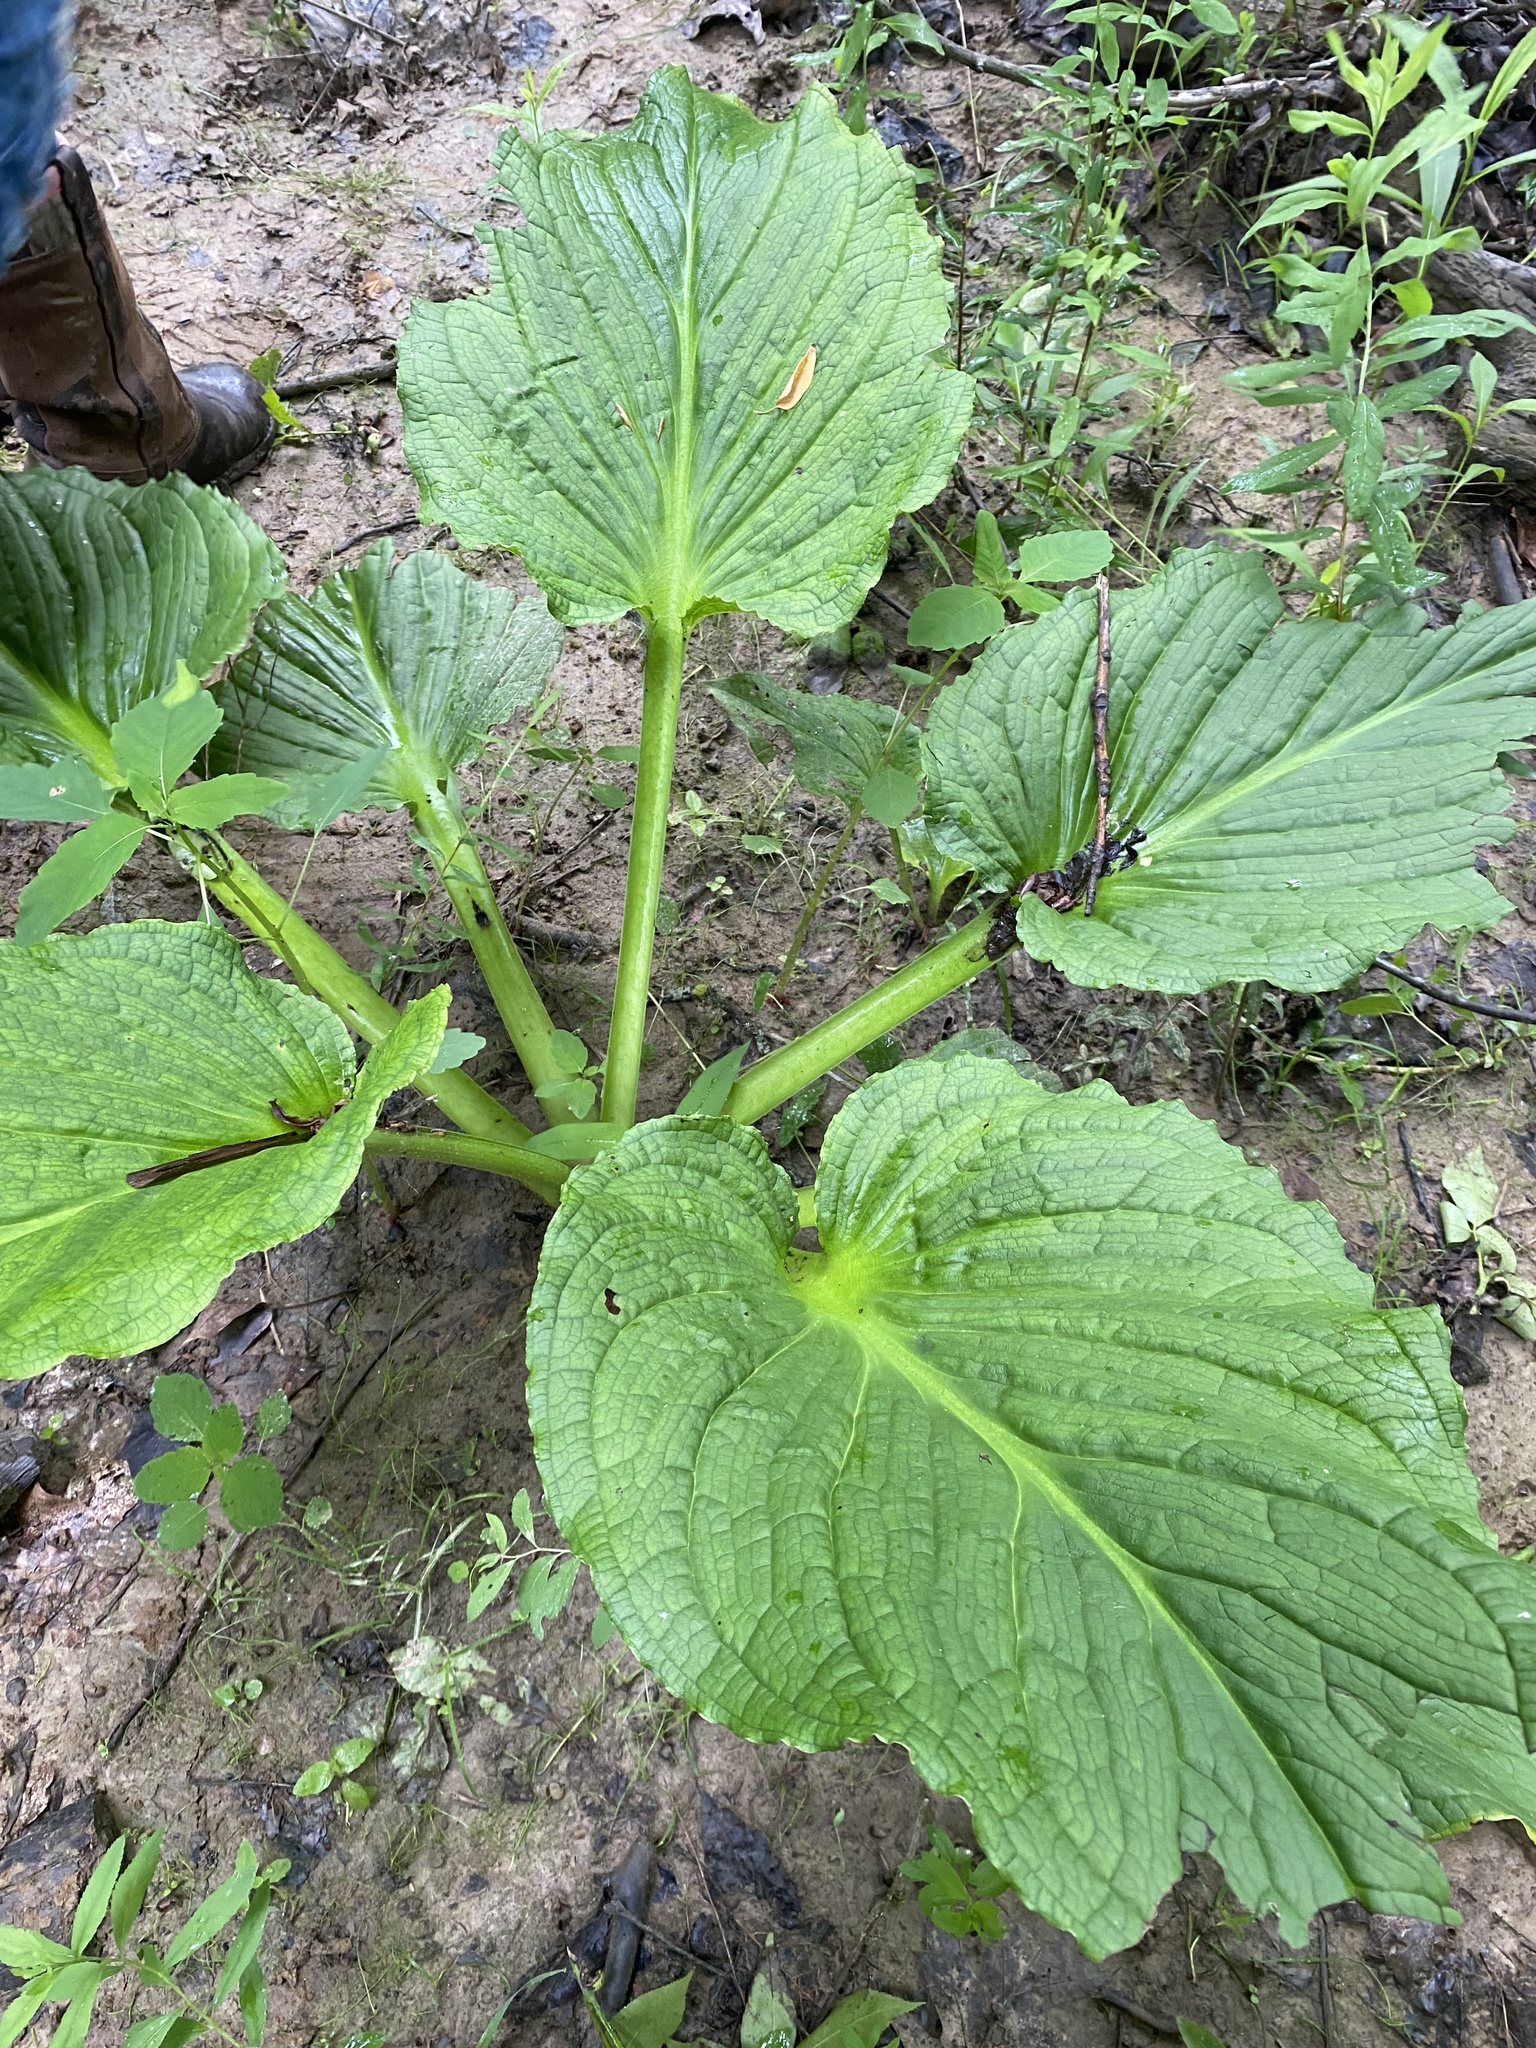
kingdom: Plantae
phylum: Tracheophyta
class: Liliopsida
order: Alismatales
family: Araceae
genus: Symplocarpus
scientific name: Symplocarpus foetidus
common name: Eastern skunk cabbage
